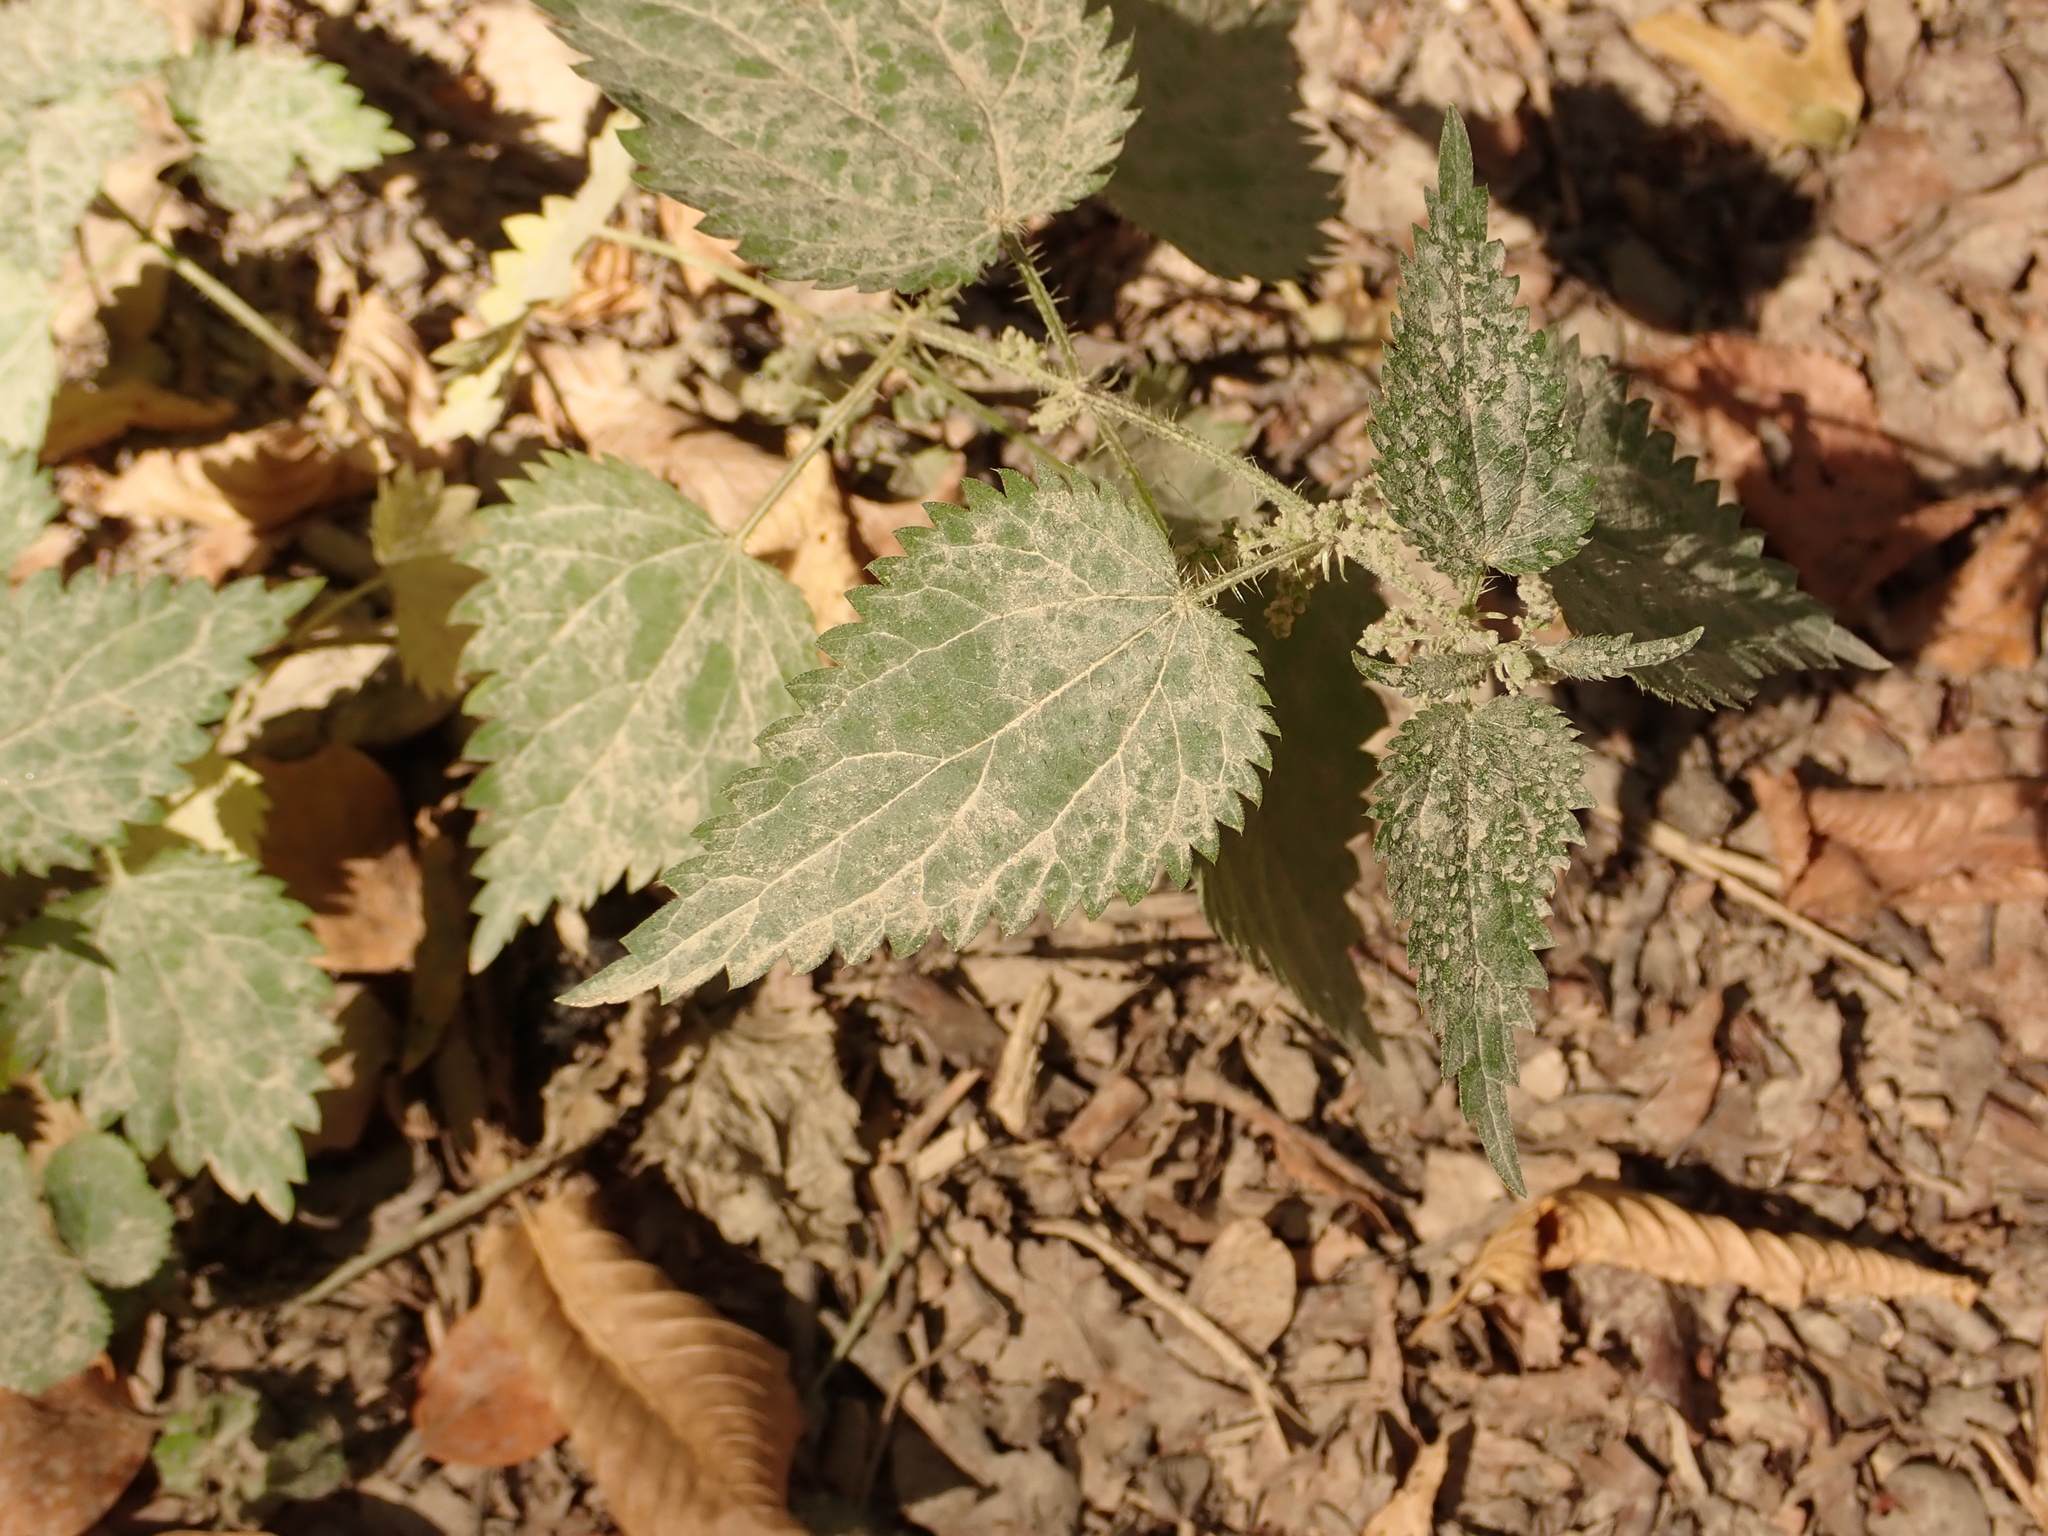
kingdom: Plantae
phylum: Tracheophyta
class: Magnoliopsida
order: Rosales
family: Urticaceae
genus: Urtica
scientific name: Urtica dioica
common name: Common nettle
